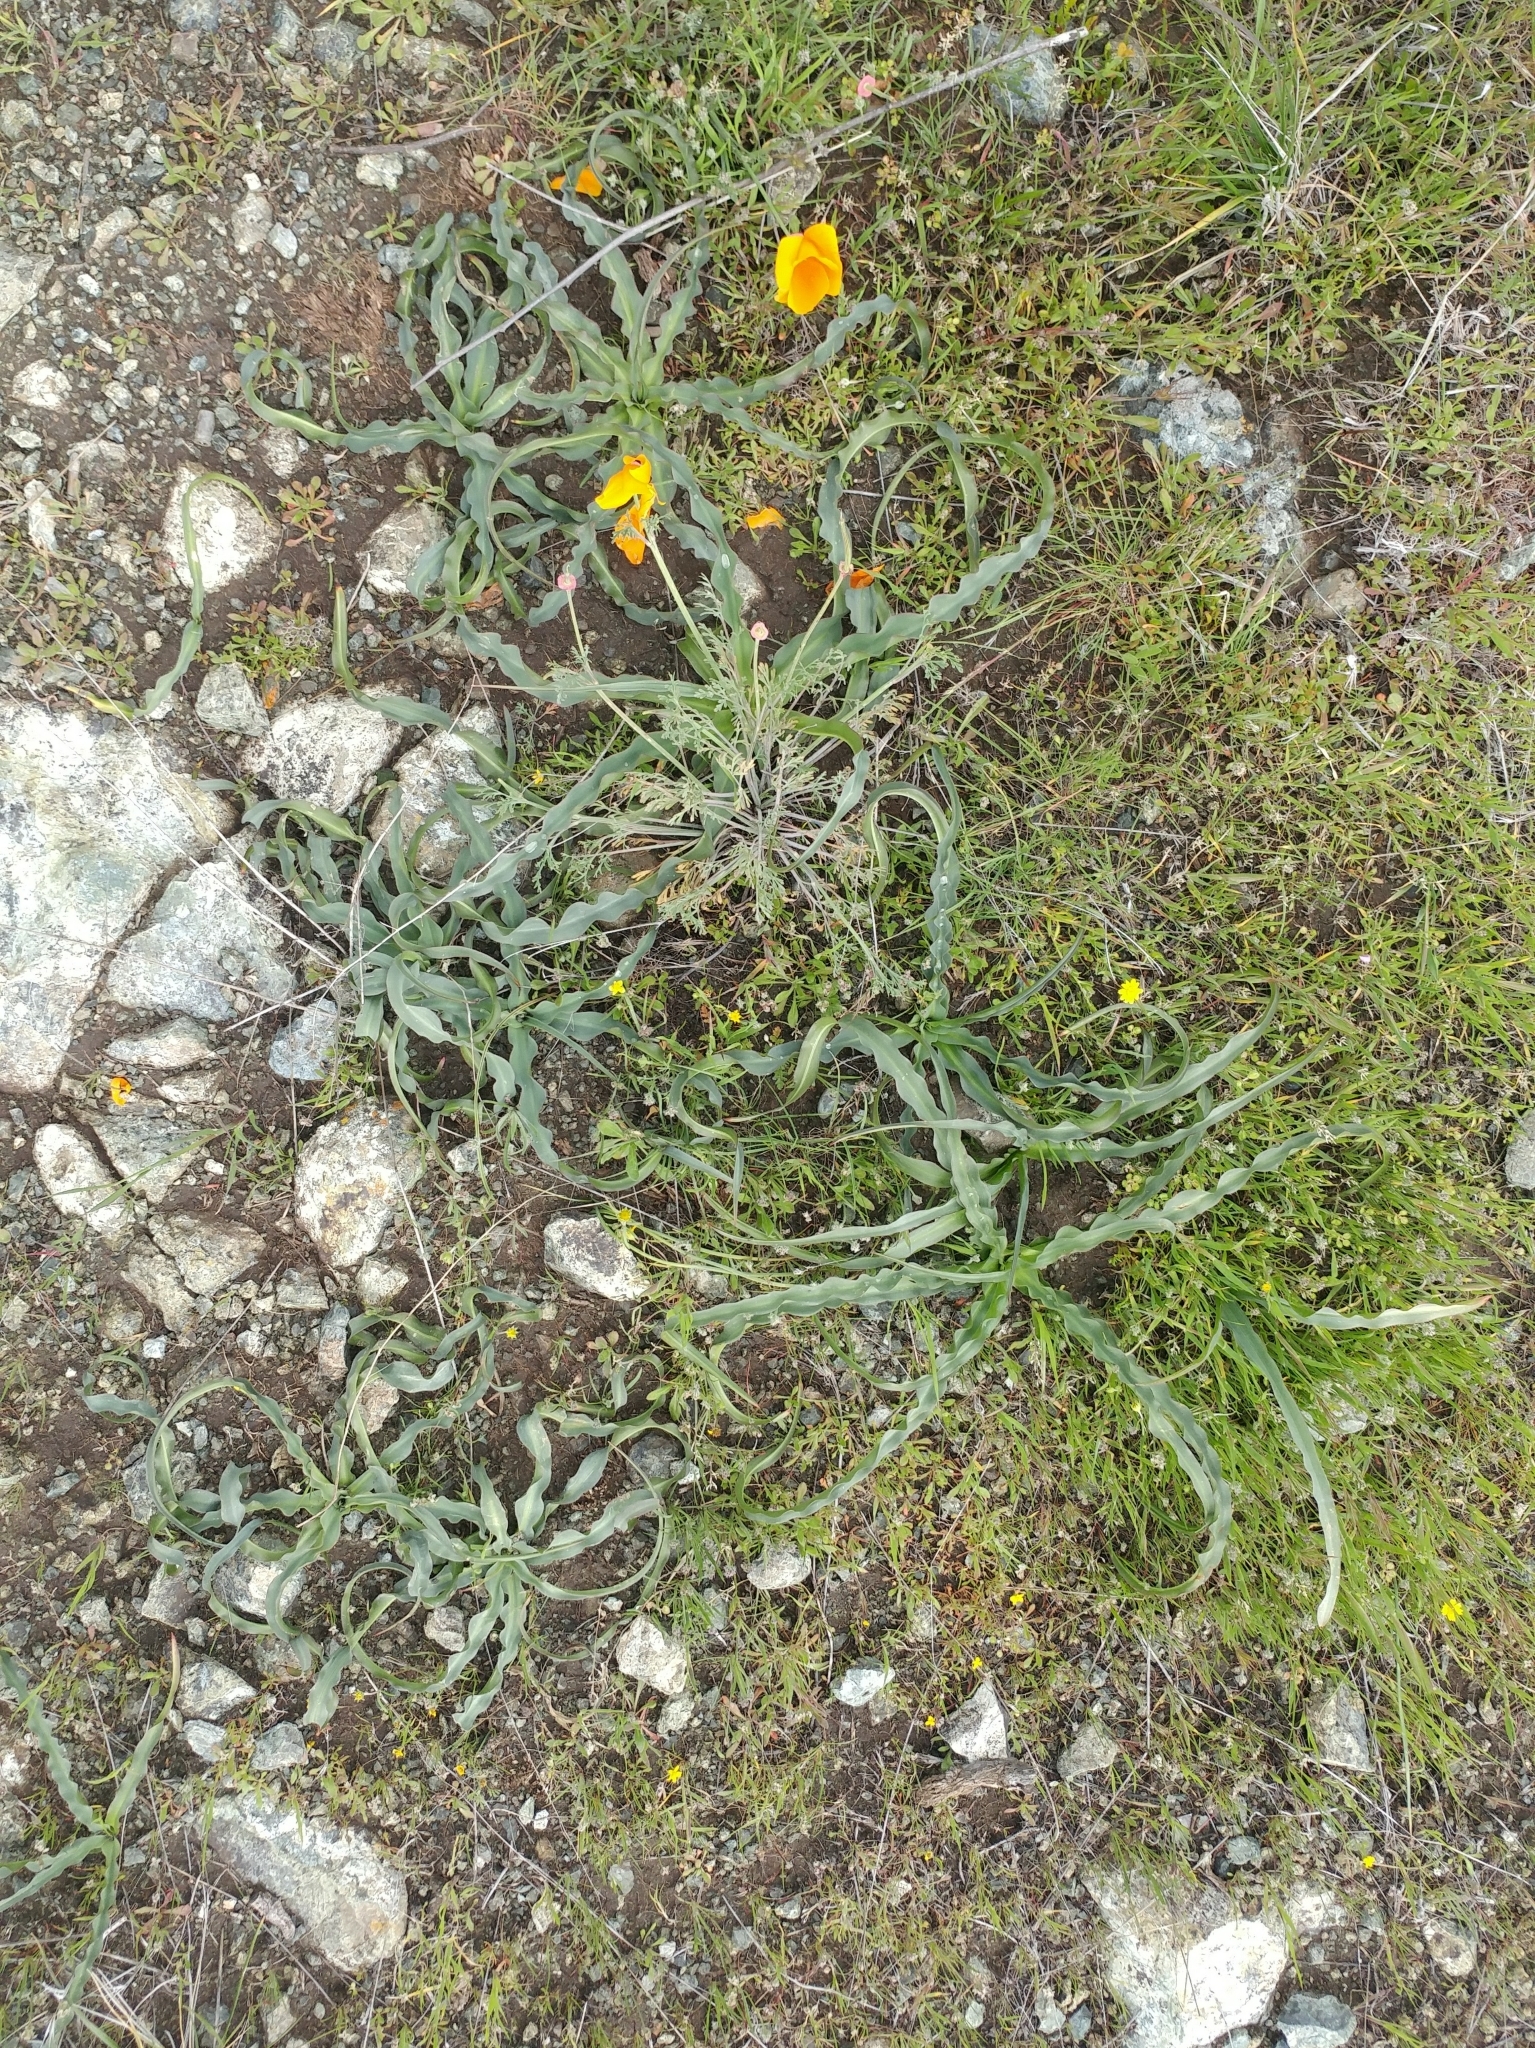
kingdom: Plantae
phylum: Tracheophyta
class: Liliopsida
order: Asparagales
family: Asparagaceae
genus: Chlorogalum
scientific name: Chlorogalum pomeridianum
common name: Amole
